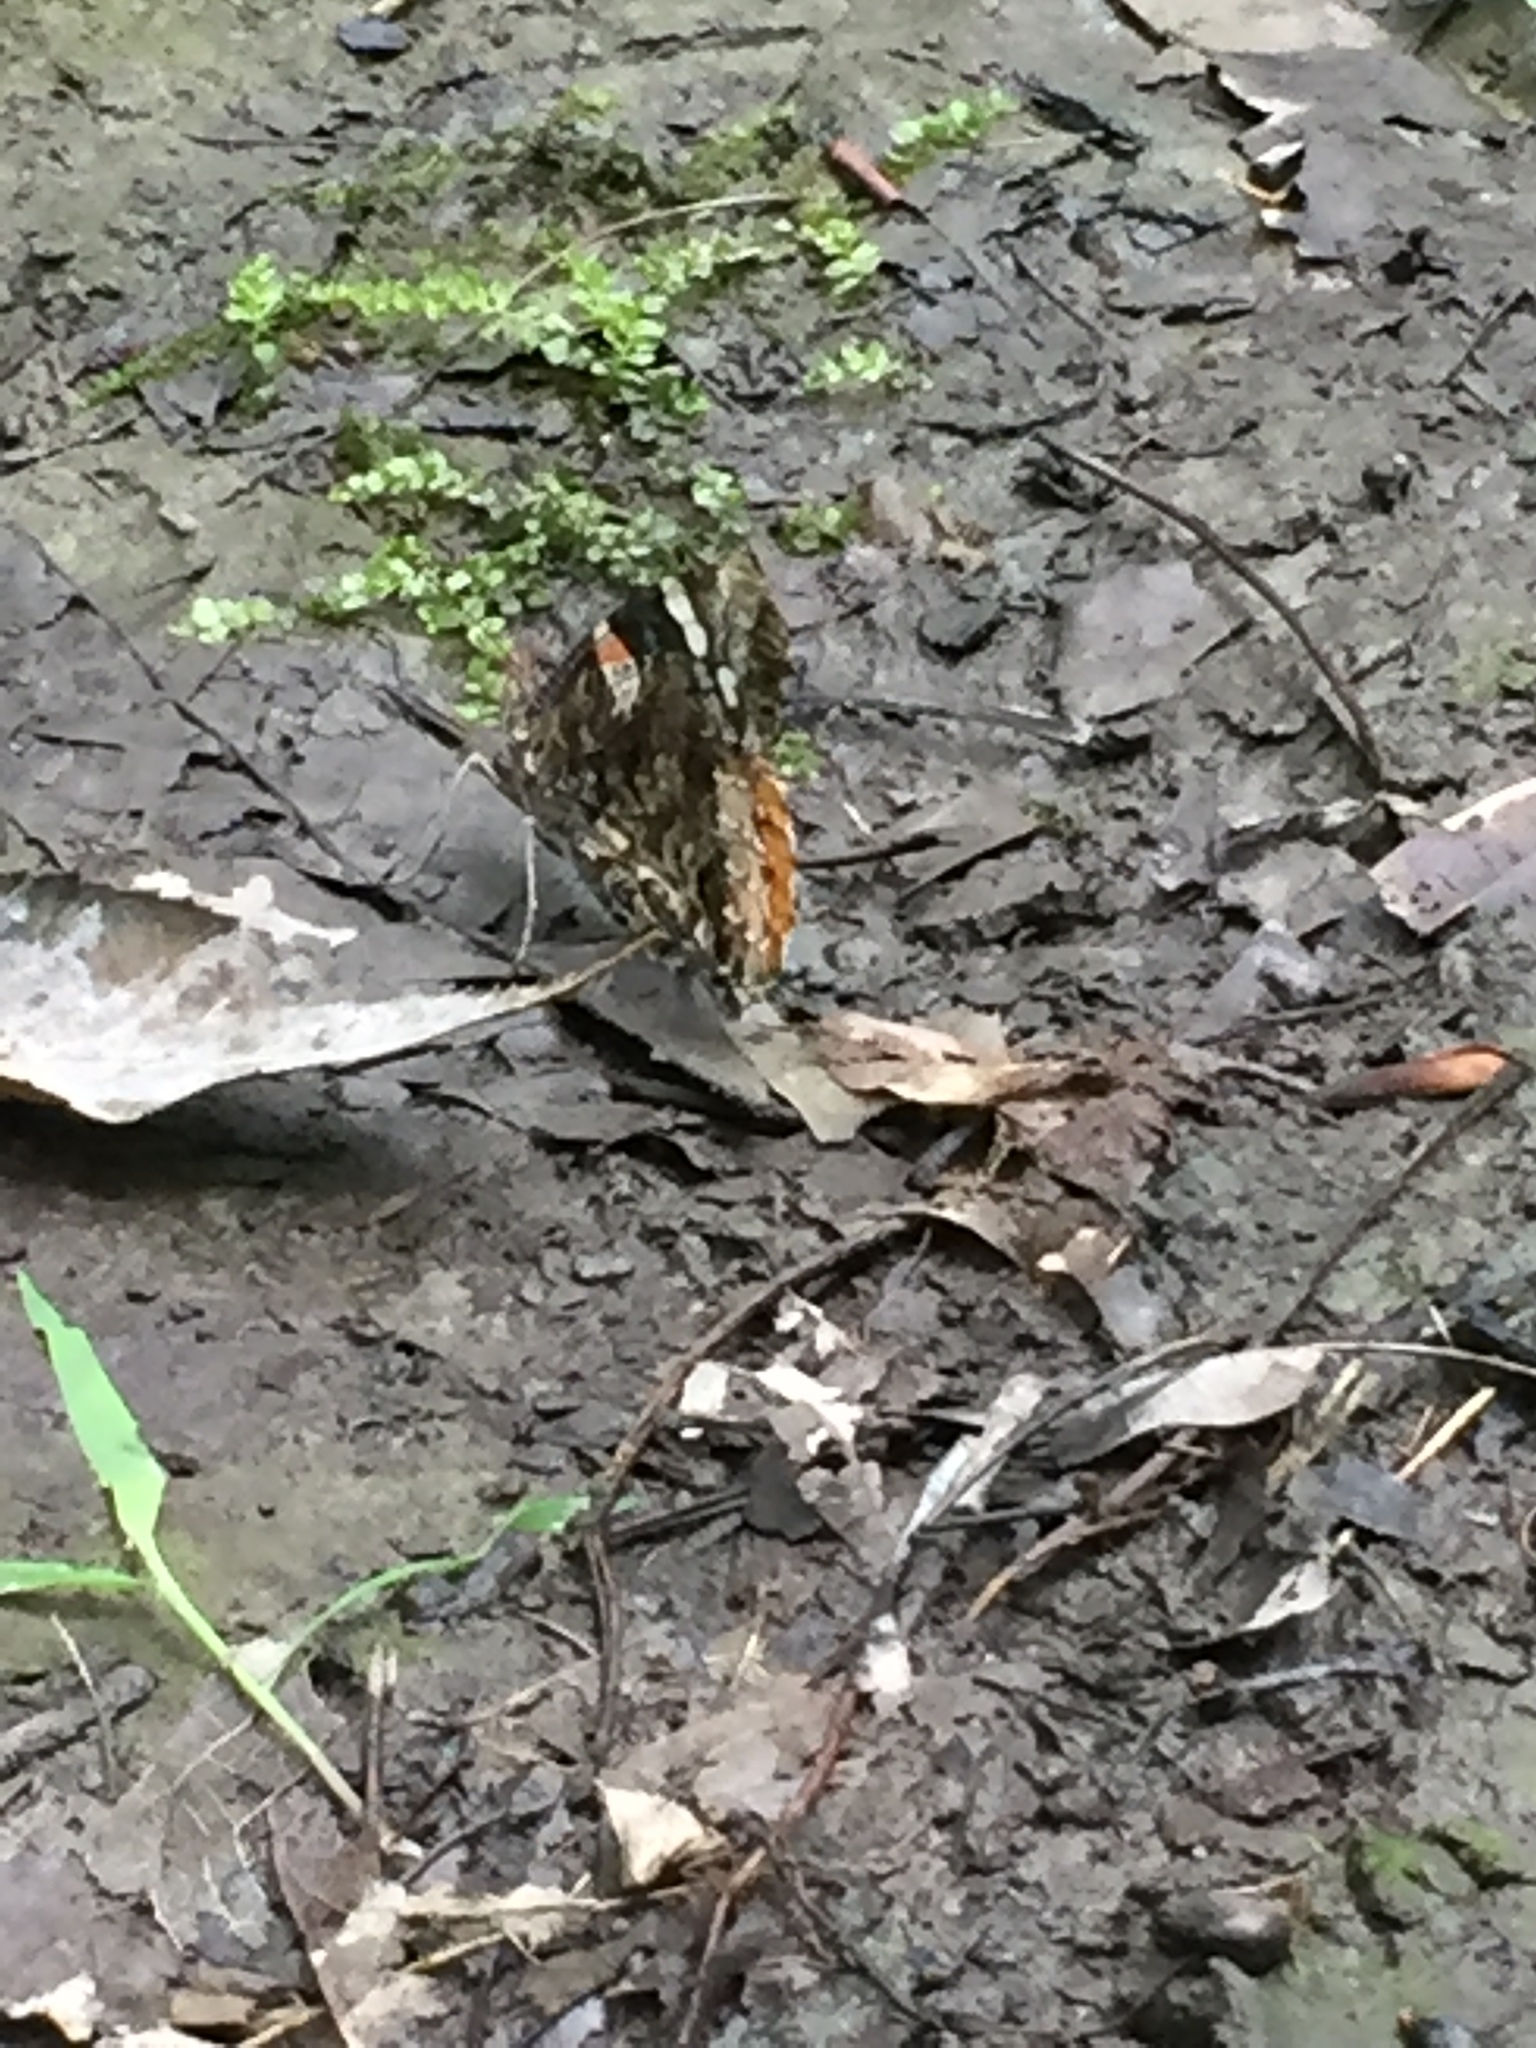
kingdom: Animalia
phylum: Arthropoda
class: Insecta
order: Lepidoptera
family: Nymphalidae
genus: Vanessa
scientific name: Vanessa atalanta
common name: Red admiral
